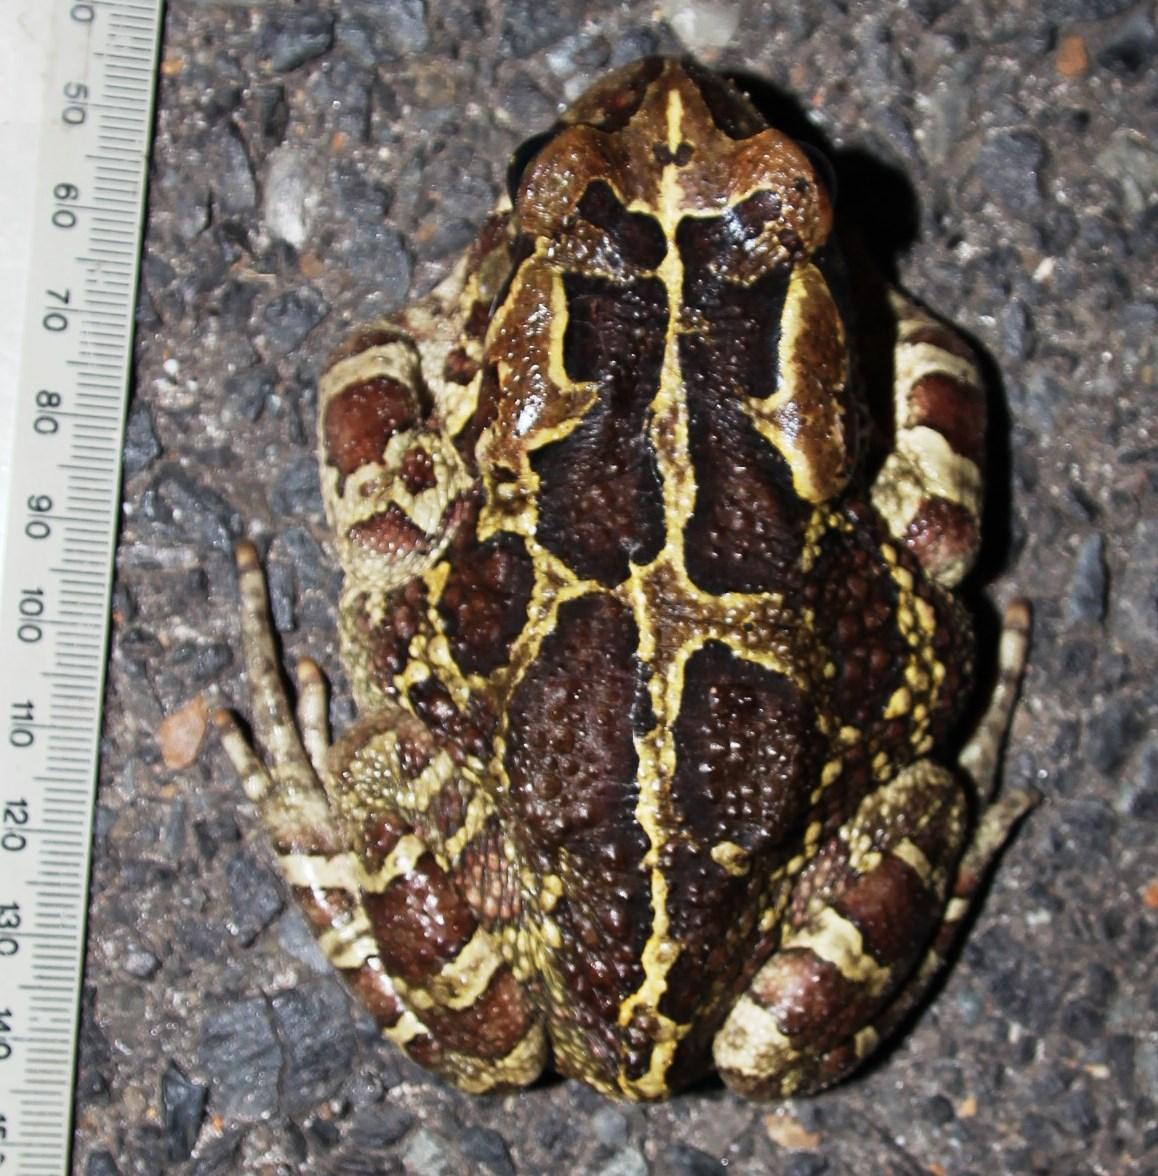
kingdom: Animalia
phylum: Chordata
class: Amphibia
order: Anura
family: Bufonidae
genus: Sclerophrys
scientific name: Sclerophrys pantherina
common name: Panther toad
